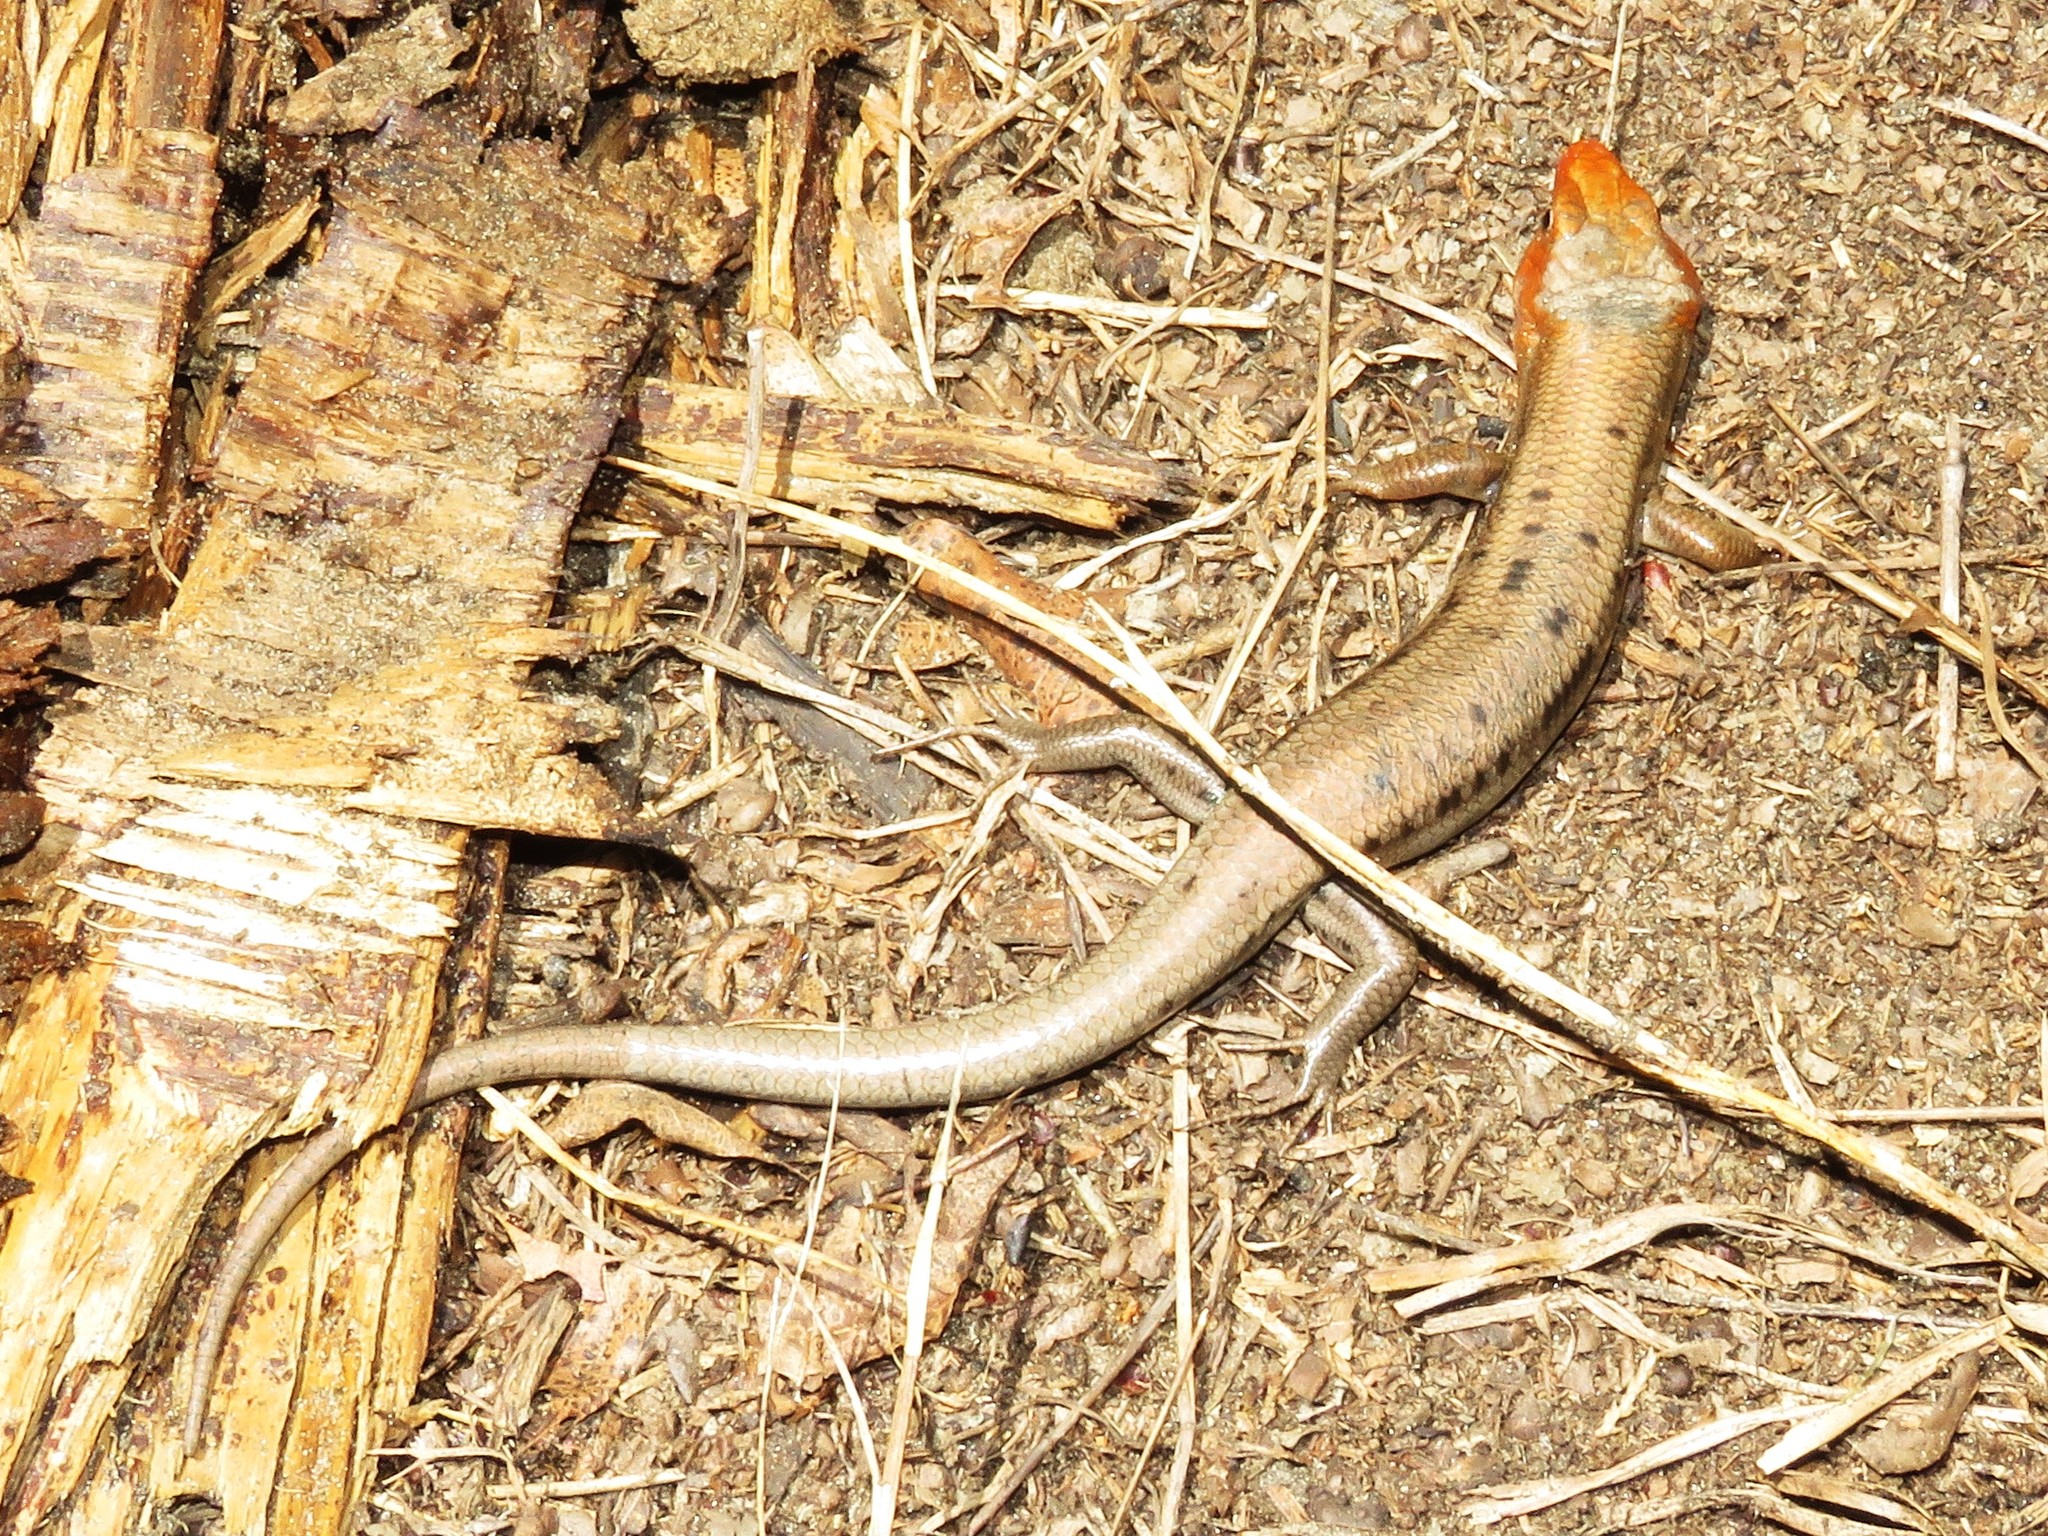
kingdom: Animalia
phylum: Chordata
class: Squamata
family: Scincidae
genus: Plestiodon
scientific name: Plestiodon fasciatus
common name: Five-lined skink
